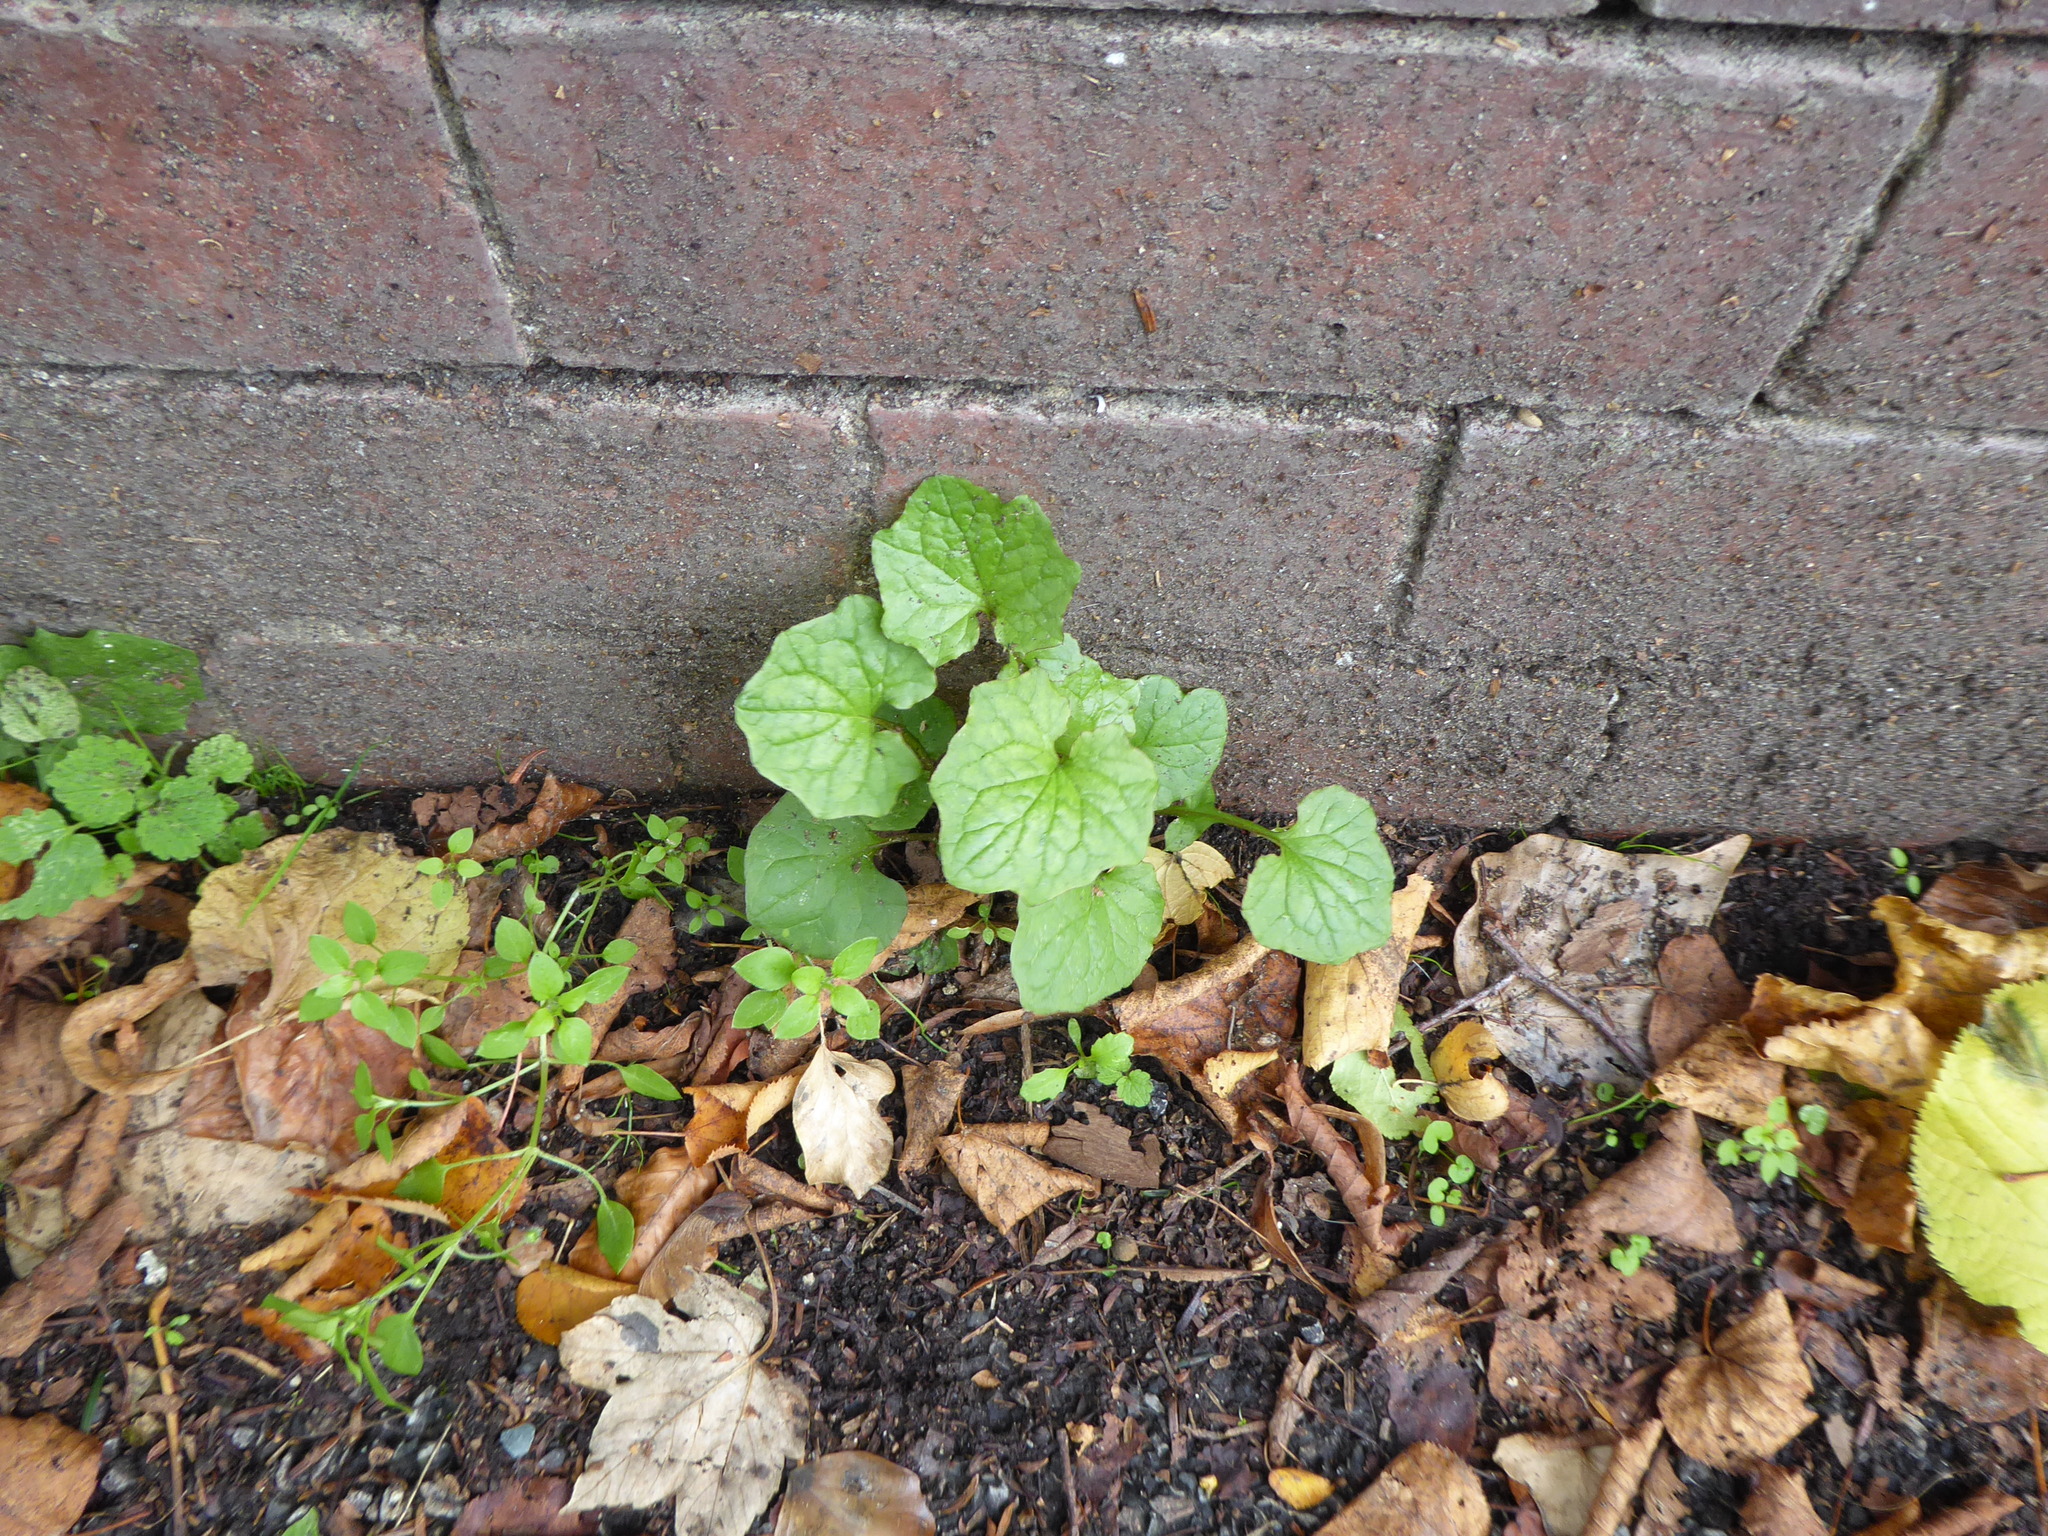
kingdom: Plantae
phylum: Tracheophyta
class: Magnoliopsida
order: Brassicales
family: Brassicaceae
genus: Alliaria
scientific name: Alliaria petiolata
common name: Garlic mustard
